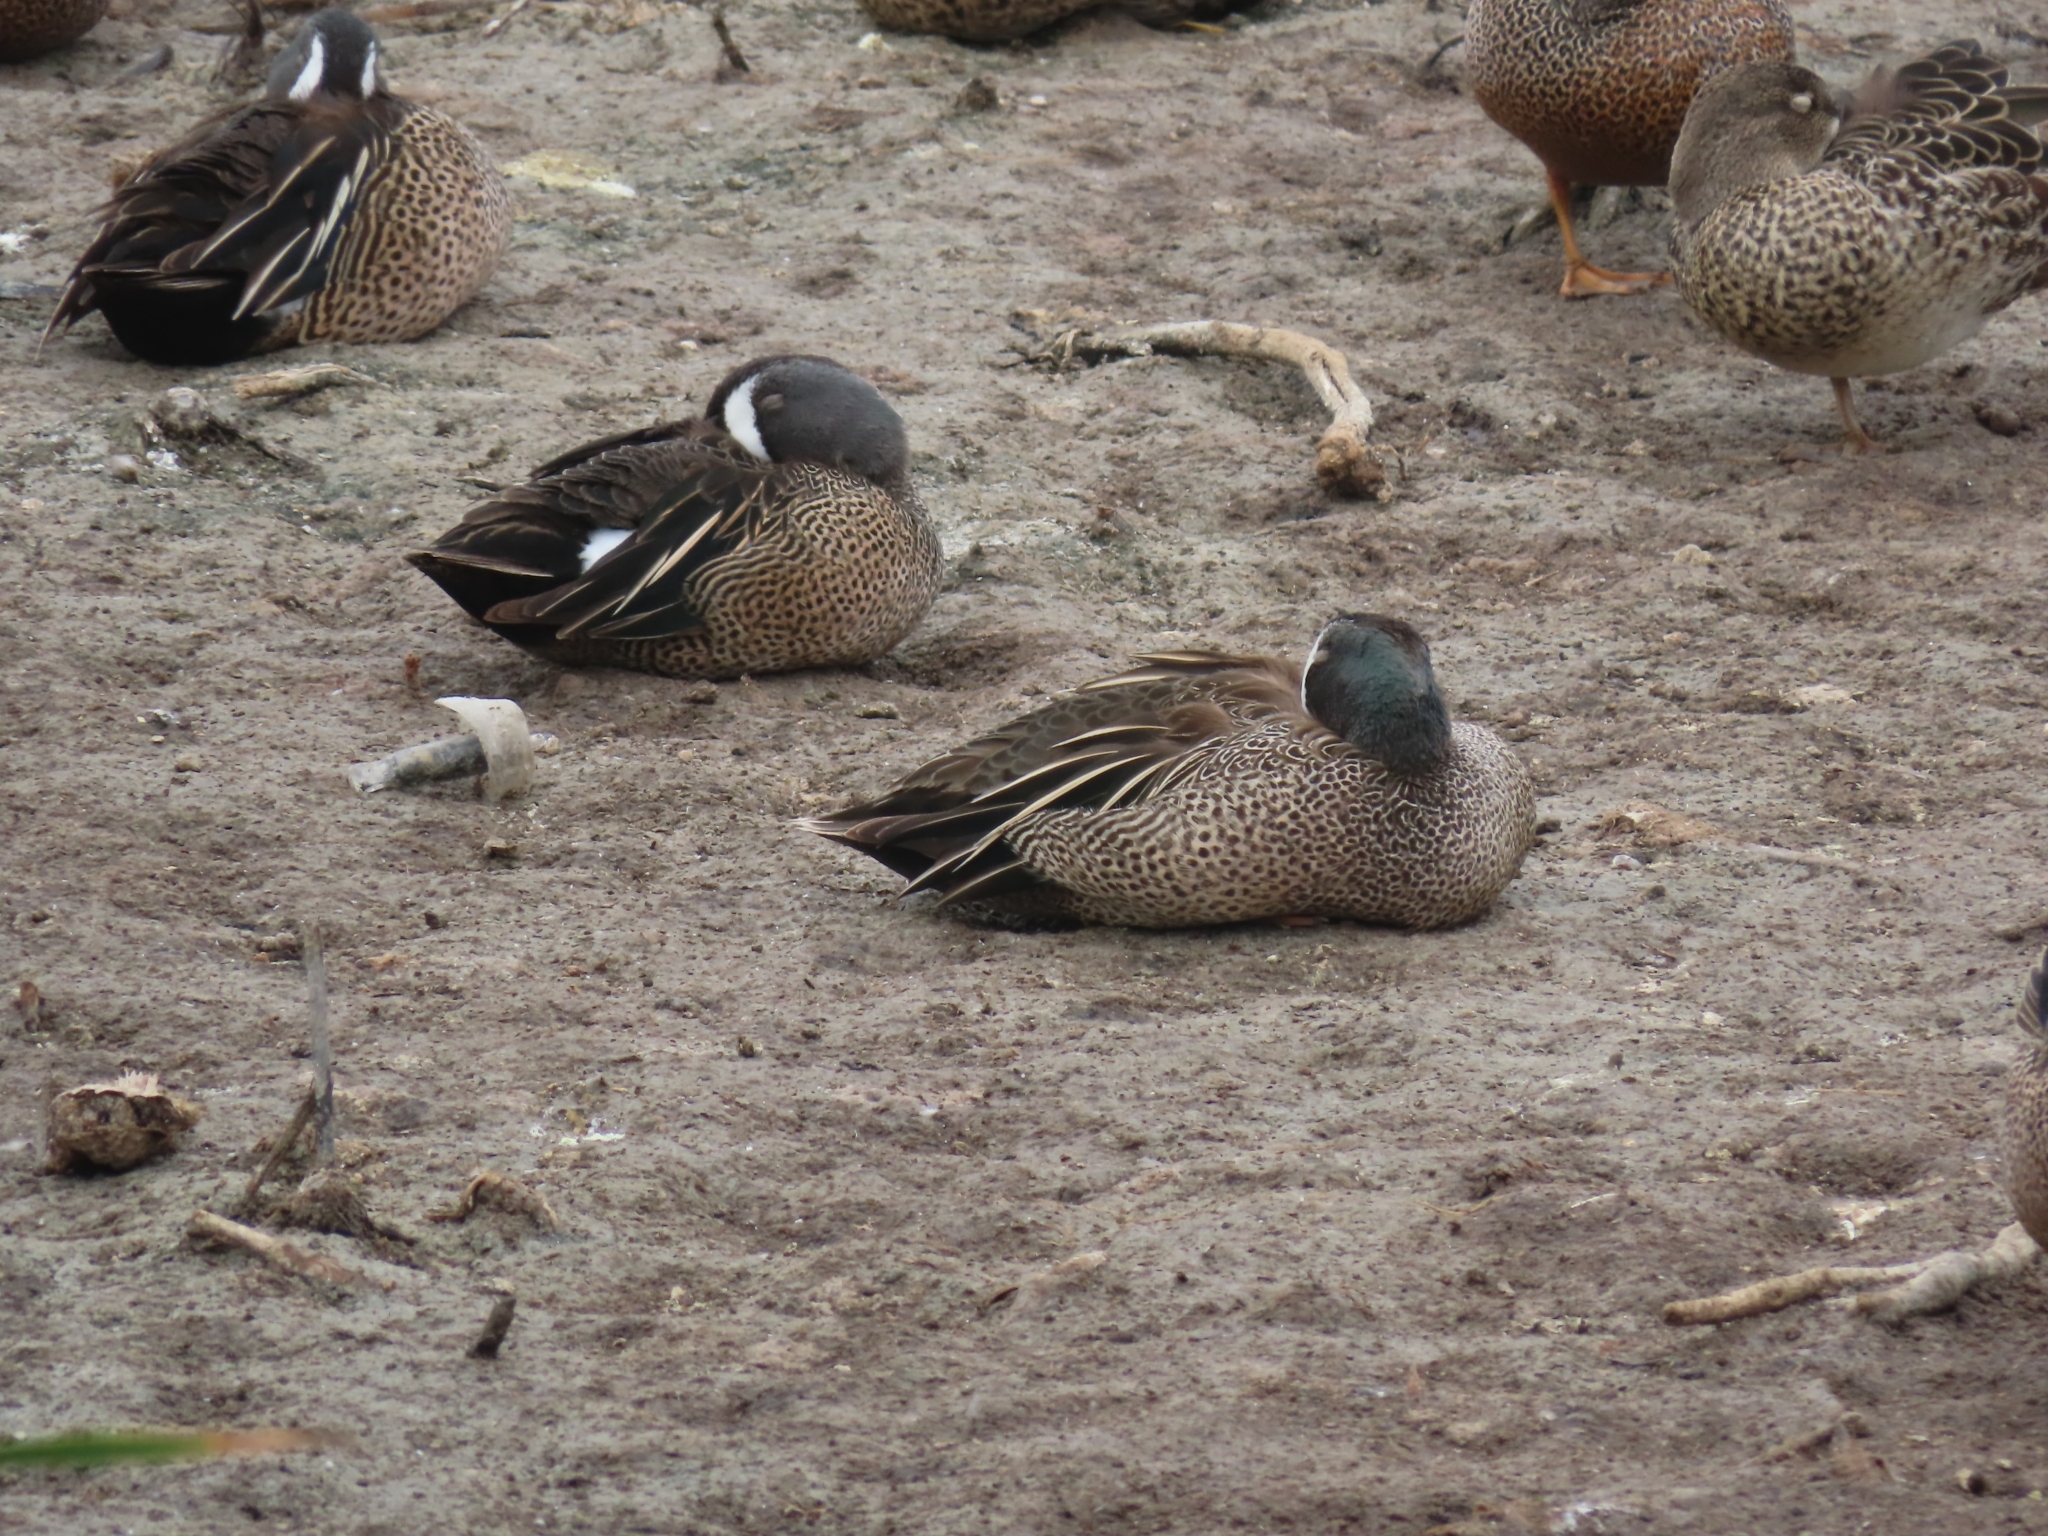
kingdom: Animalia
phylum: Chordata
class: Aves
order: Anseriformes
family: Anatidae
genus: Spatula
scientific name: Spatula discors
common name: Blue-winged teal
